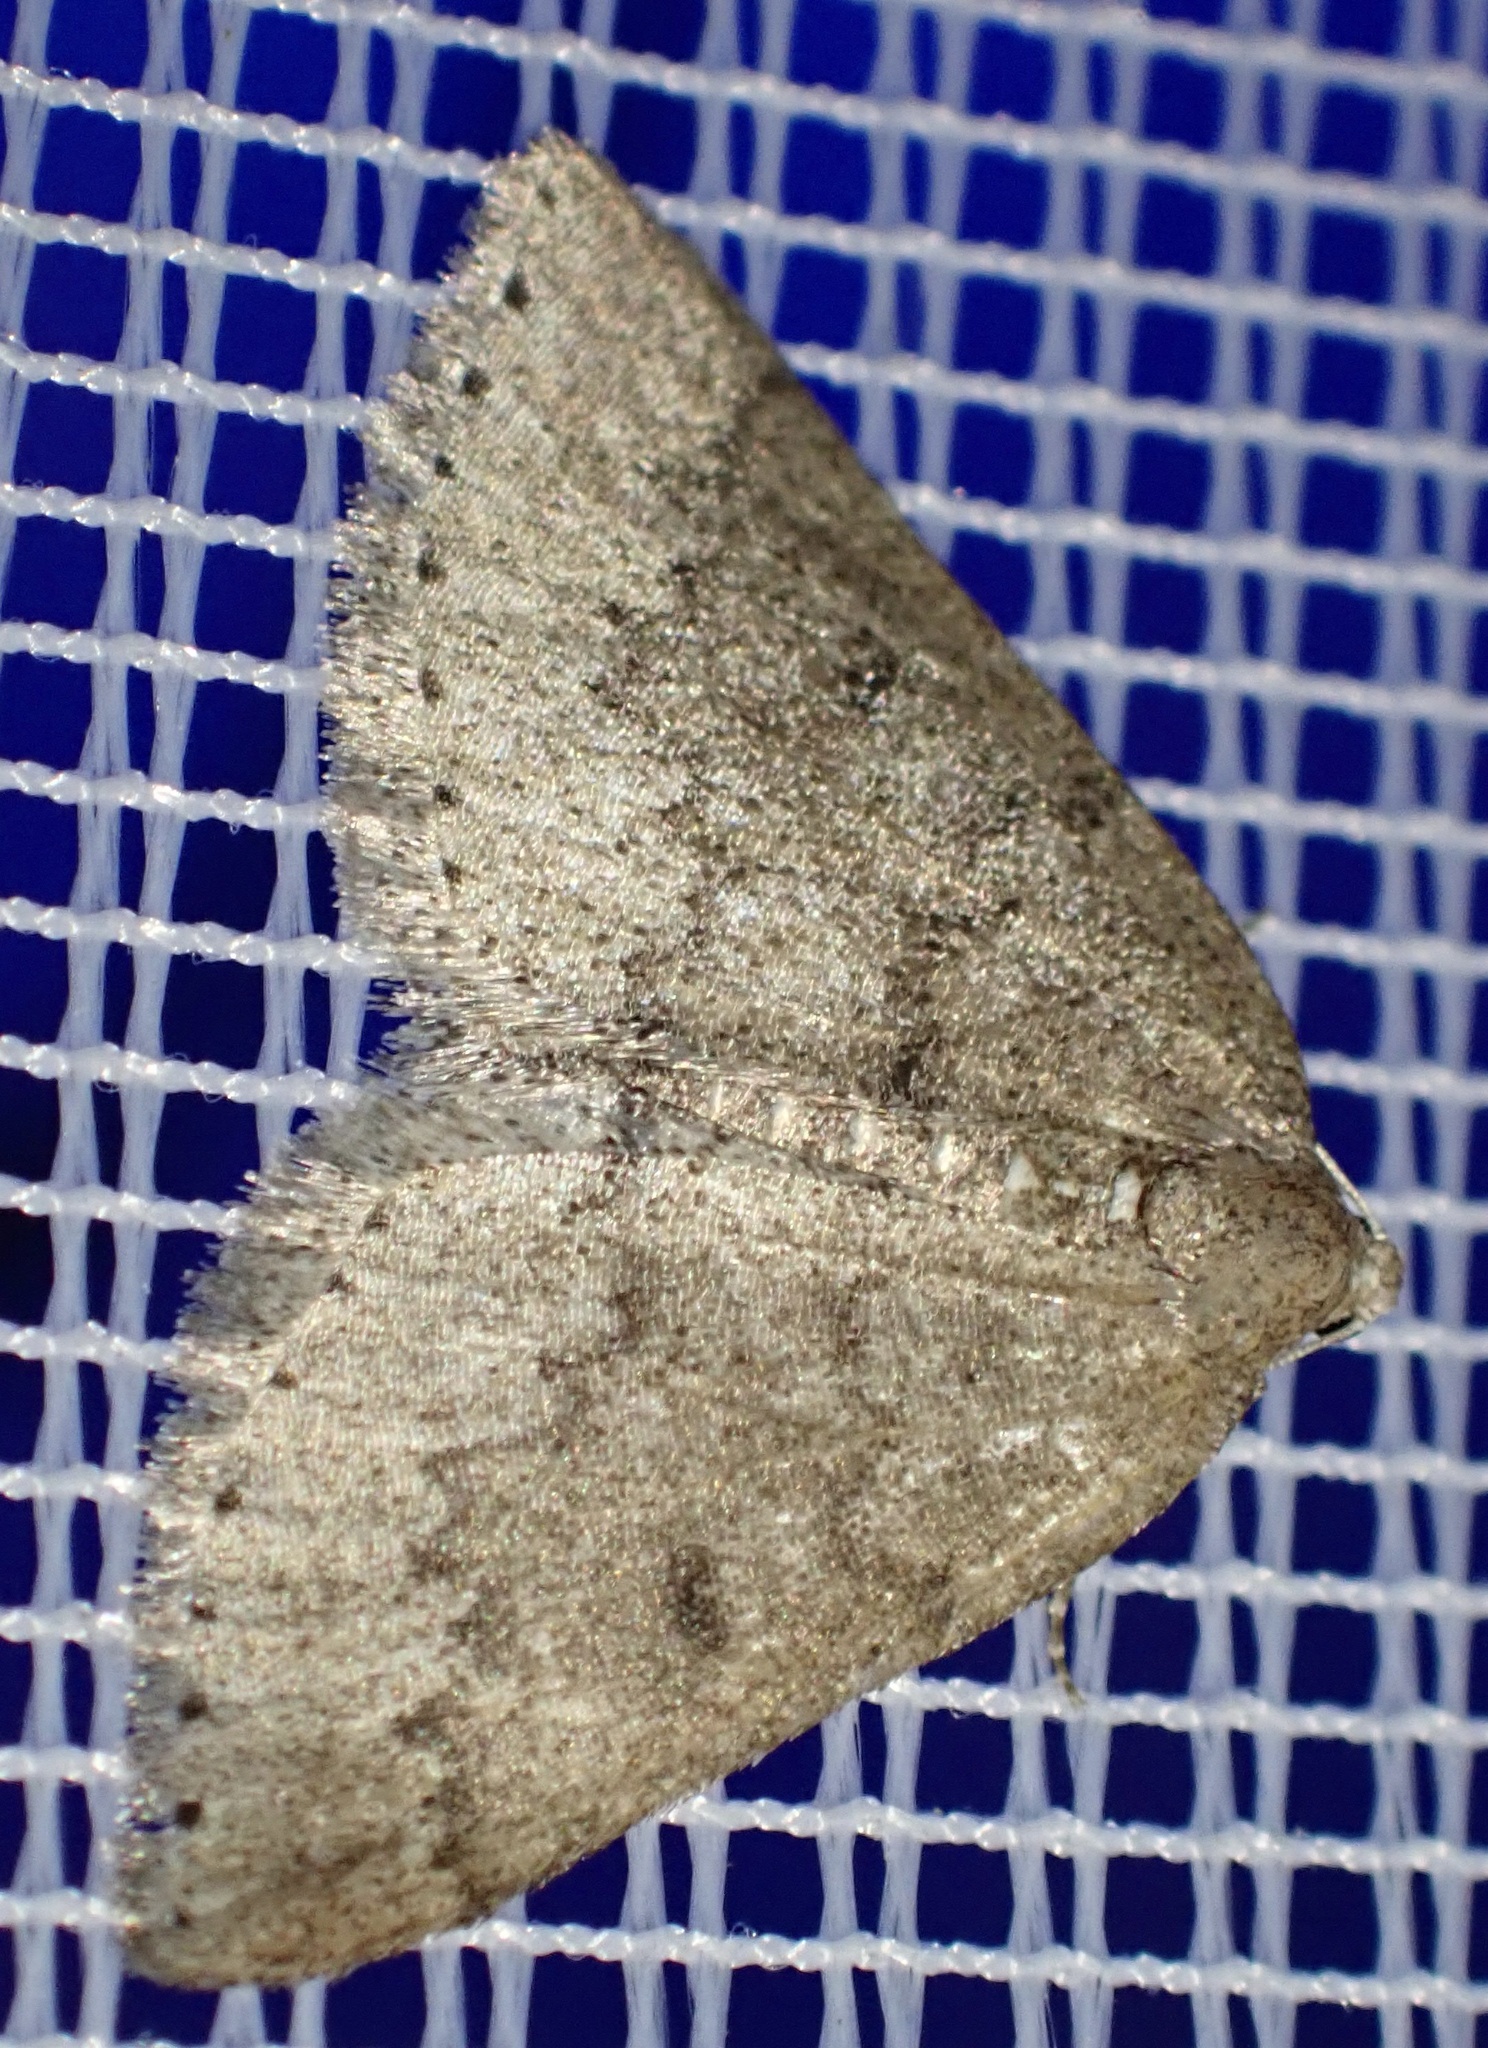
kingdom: Animalia
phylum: Arthropoda
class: Insecta
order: Lepidoptera
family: Geometridae
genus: Aleucis
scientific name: Aleucis distinctata
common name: Sloe carpet
